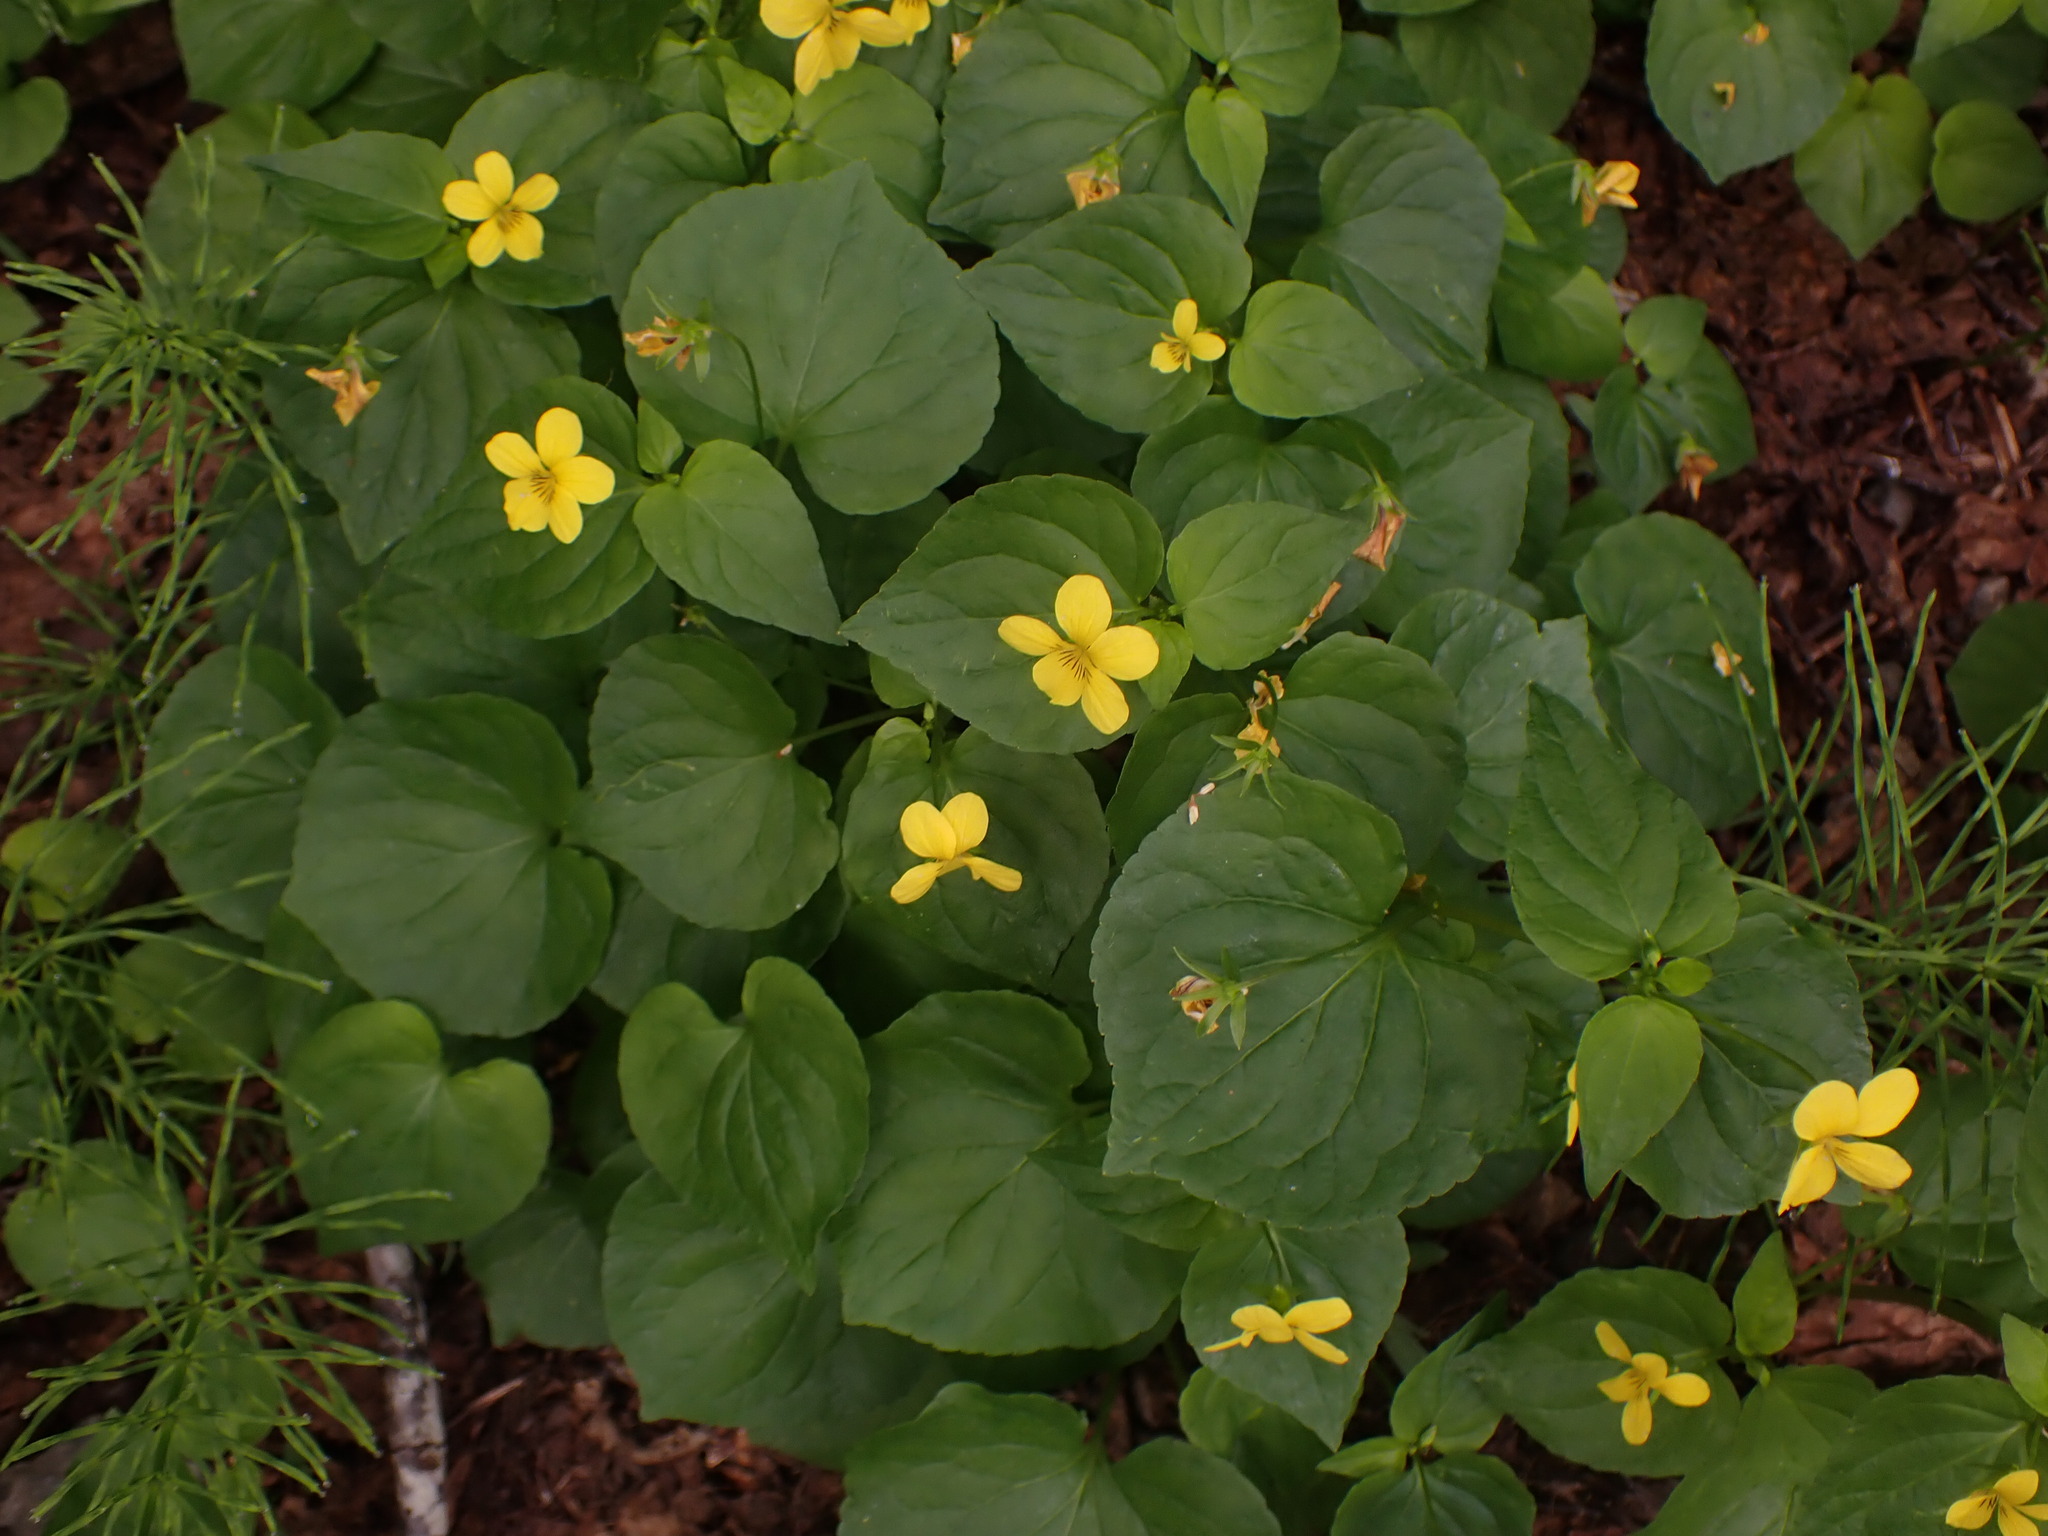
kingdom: Plantae
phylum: Tracheophyta
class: Magnoliopsida
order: Malpighiales
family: Violaceae
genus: Viola
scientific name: Viola glabella
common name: Stream violet
